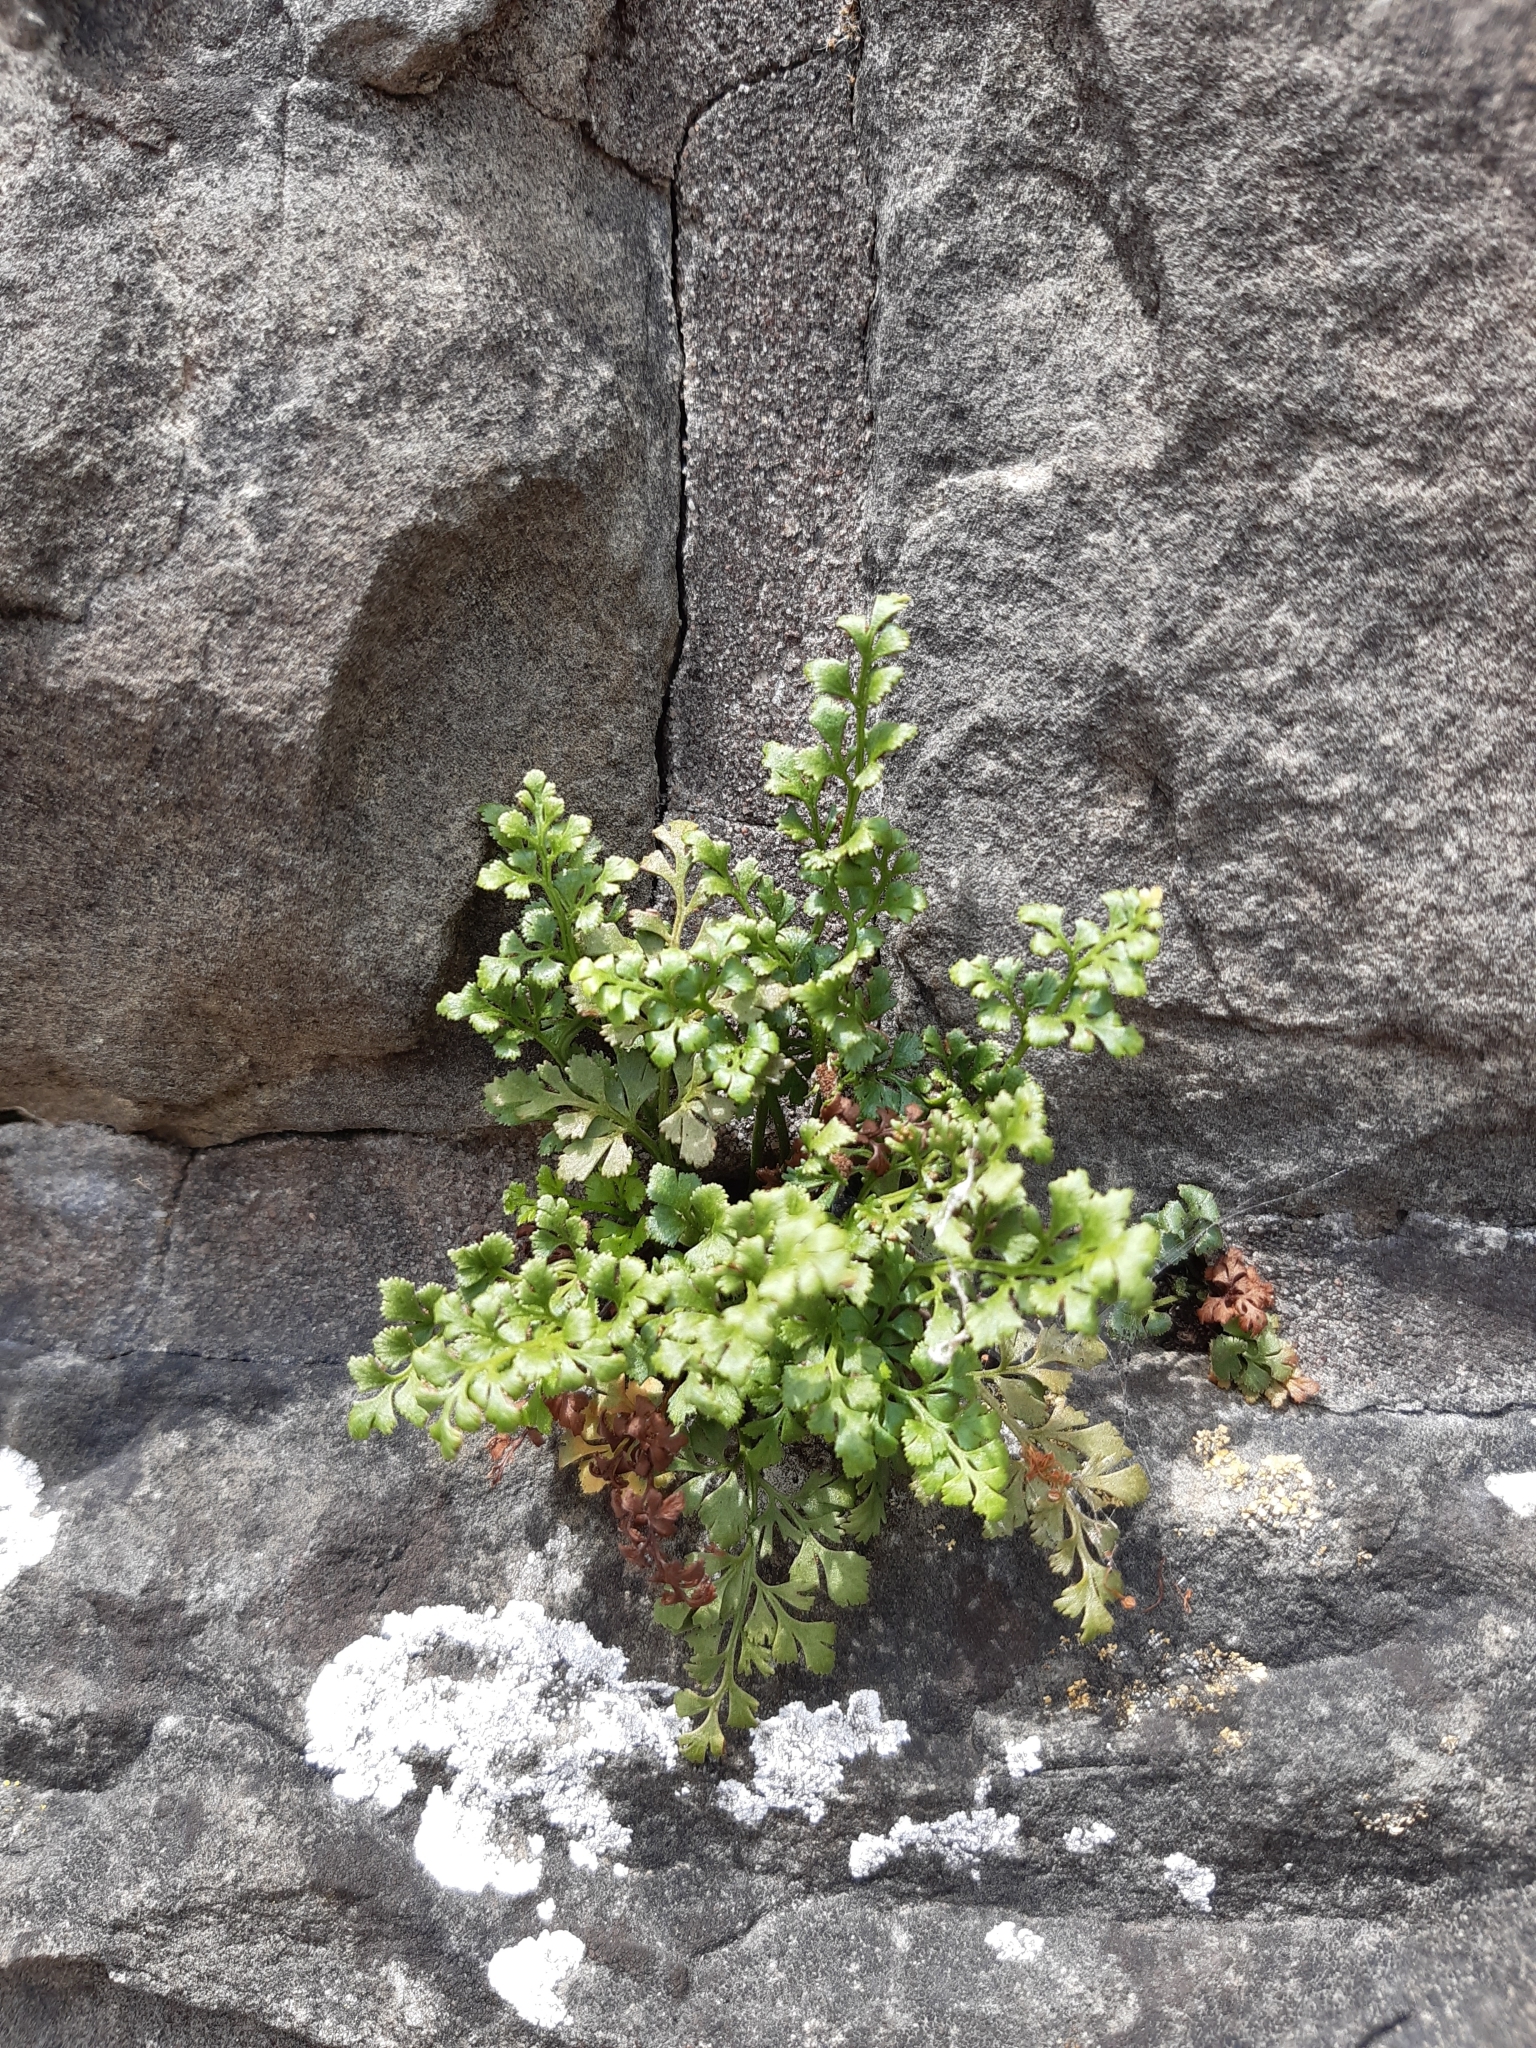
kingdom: Plantae
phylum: Tracheophyta
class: Polypodiopsida
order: Polypodiales
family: Aspleniaceae
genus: Asplenium
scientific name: Asplenium ruta-muraria
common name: Wall-rue
